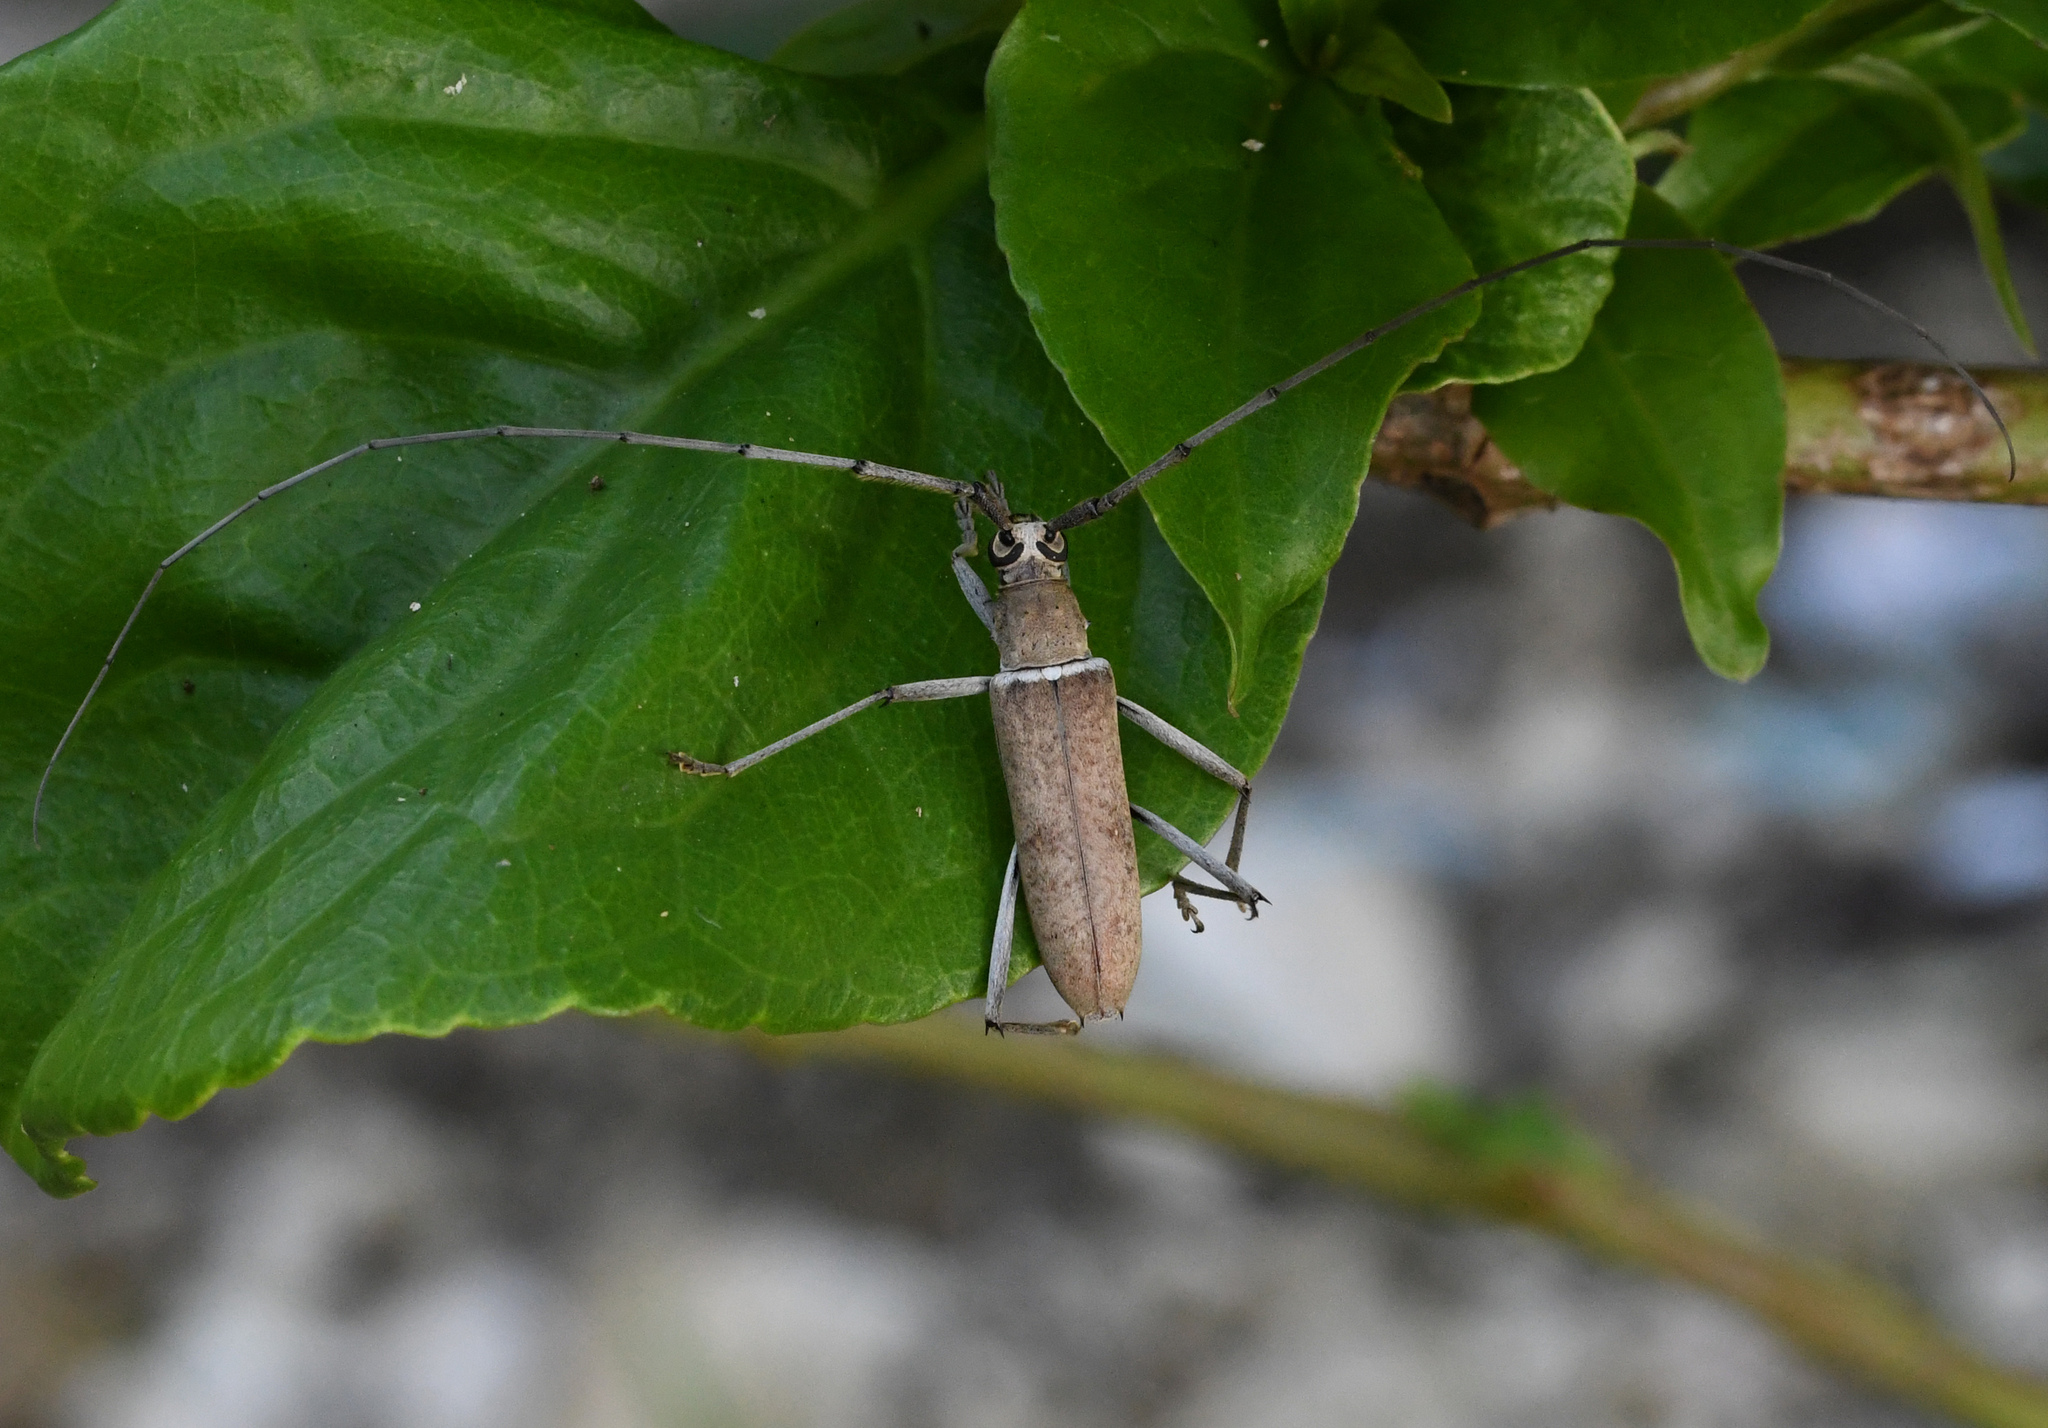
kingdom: Animalia
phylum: Arthropoda
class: Insecta
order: Coleoptera
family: Cerambycidae
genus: Eburia
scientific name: Eburia fisheri
